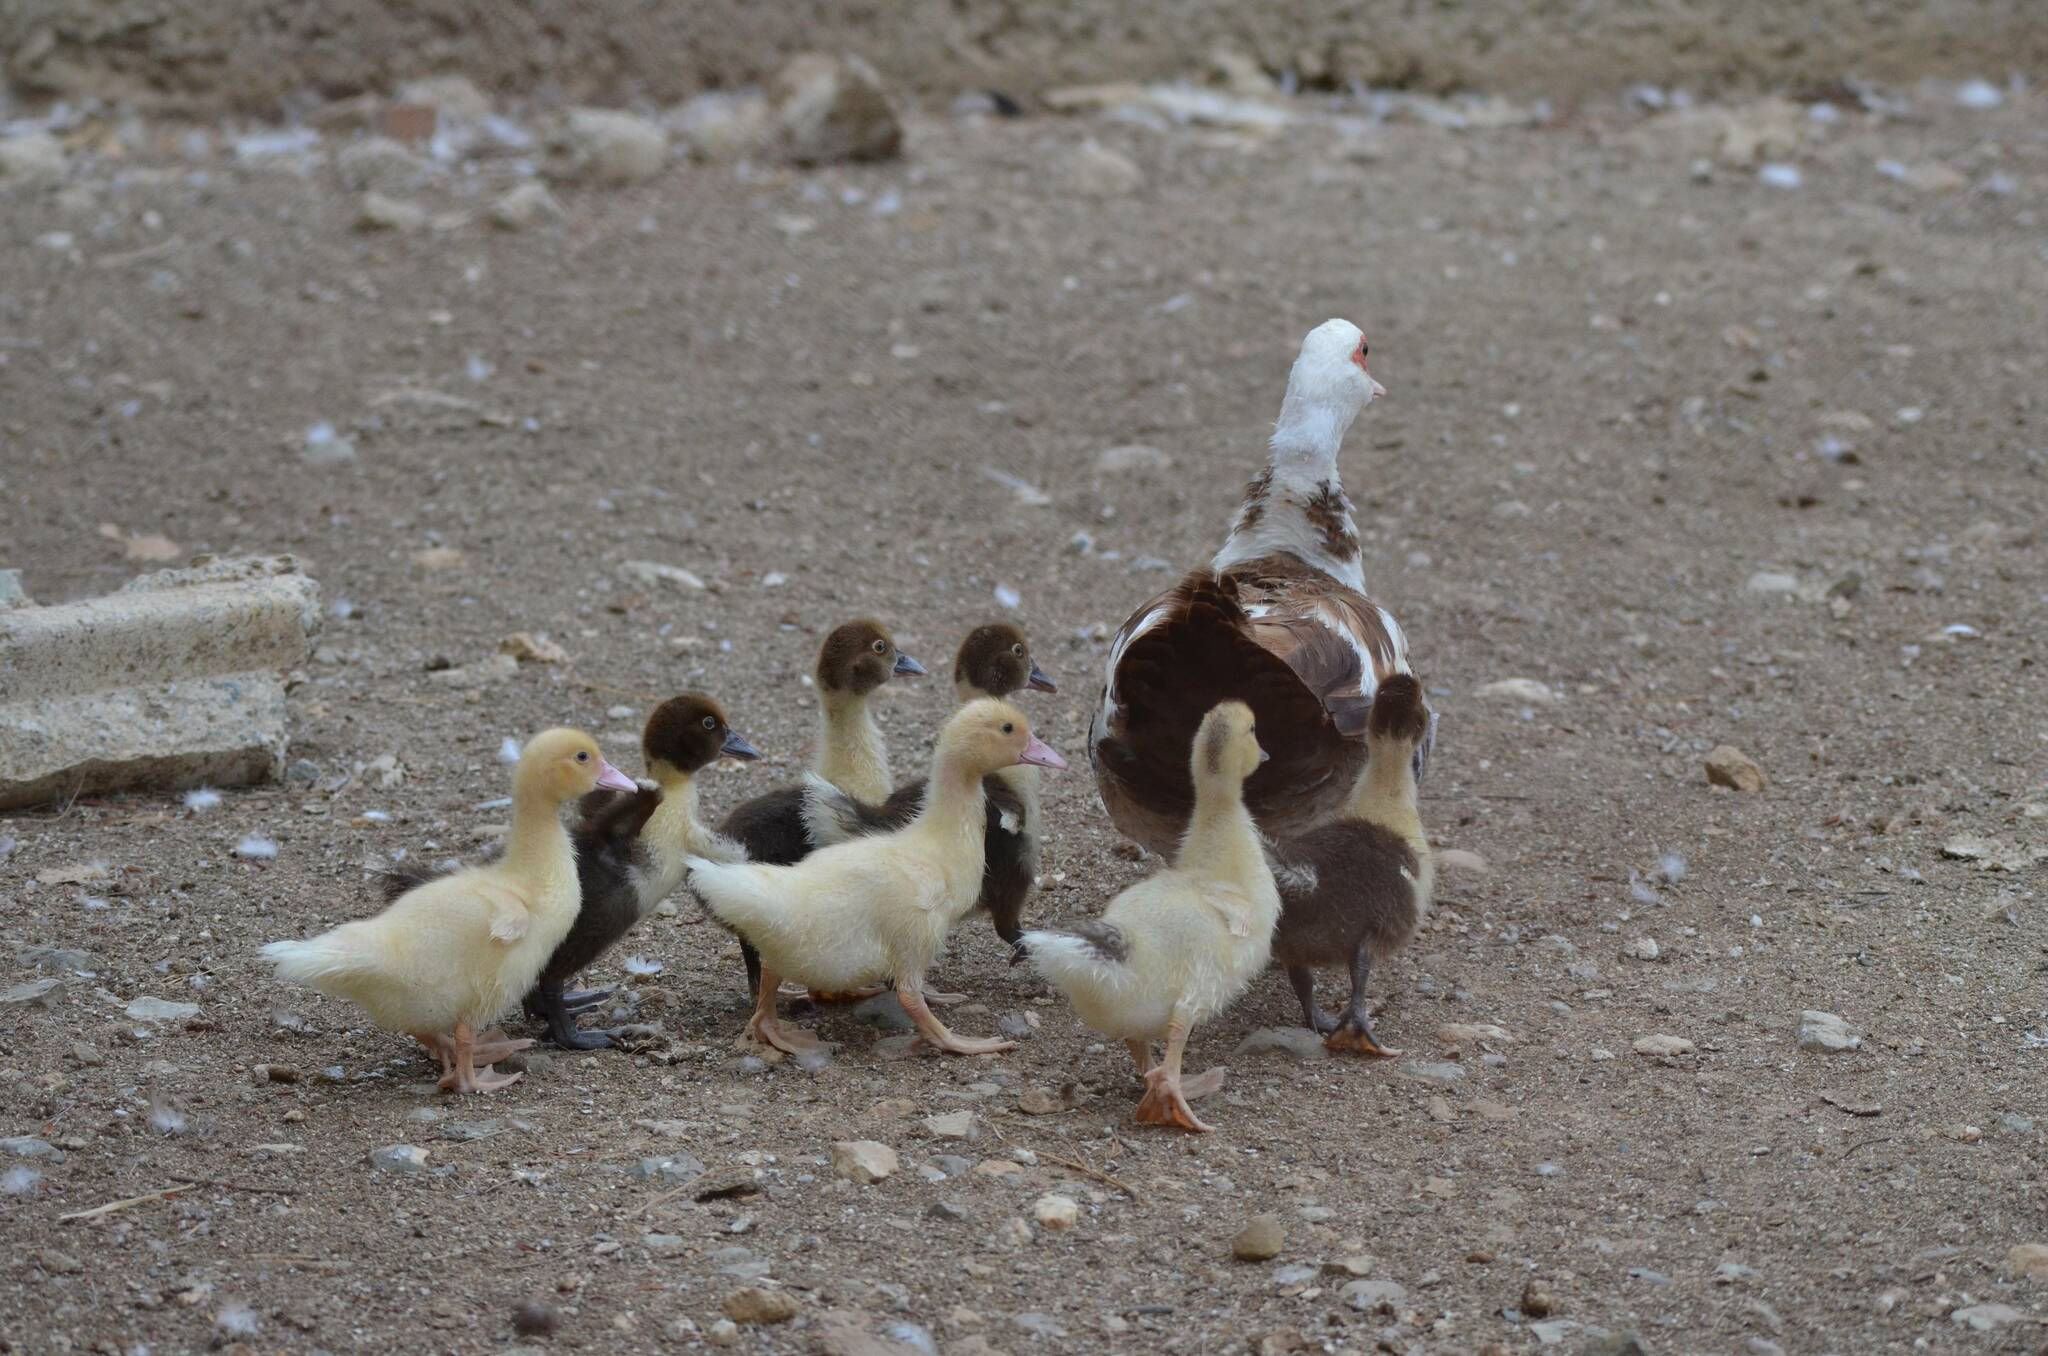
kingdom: Animalia
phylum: Chordata
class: Aves
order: Anseriformes
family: Anatidae
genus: Cairina
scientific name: Cairina moschata
